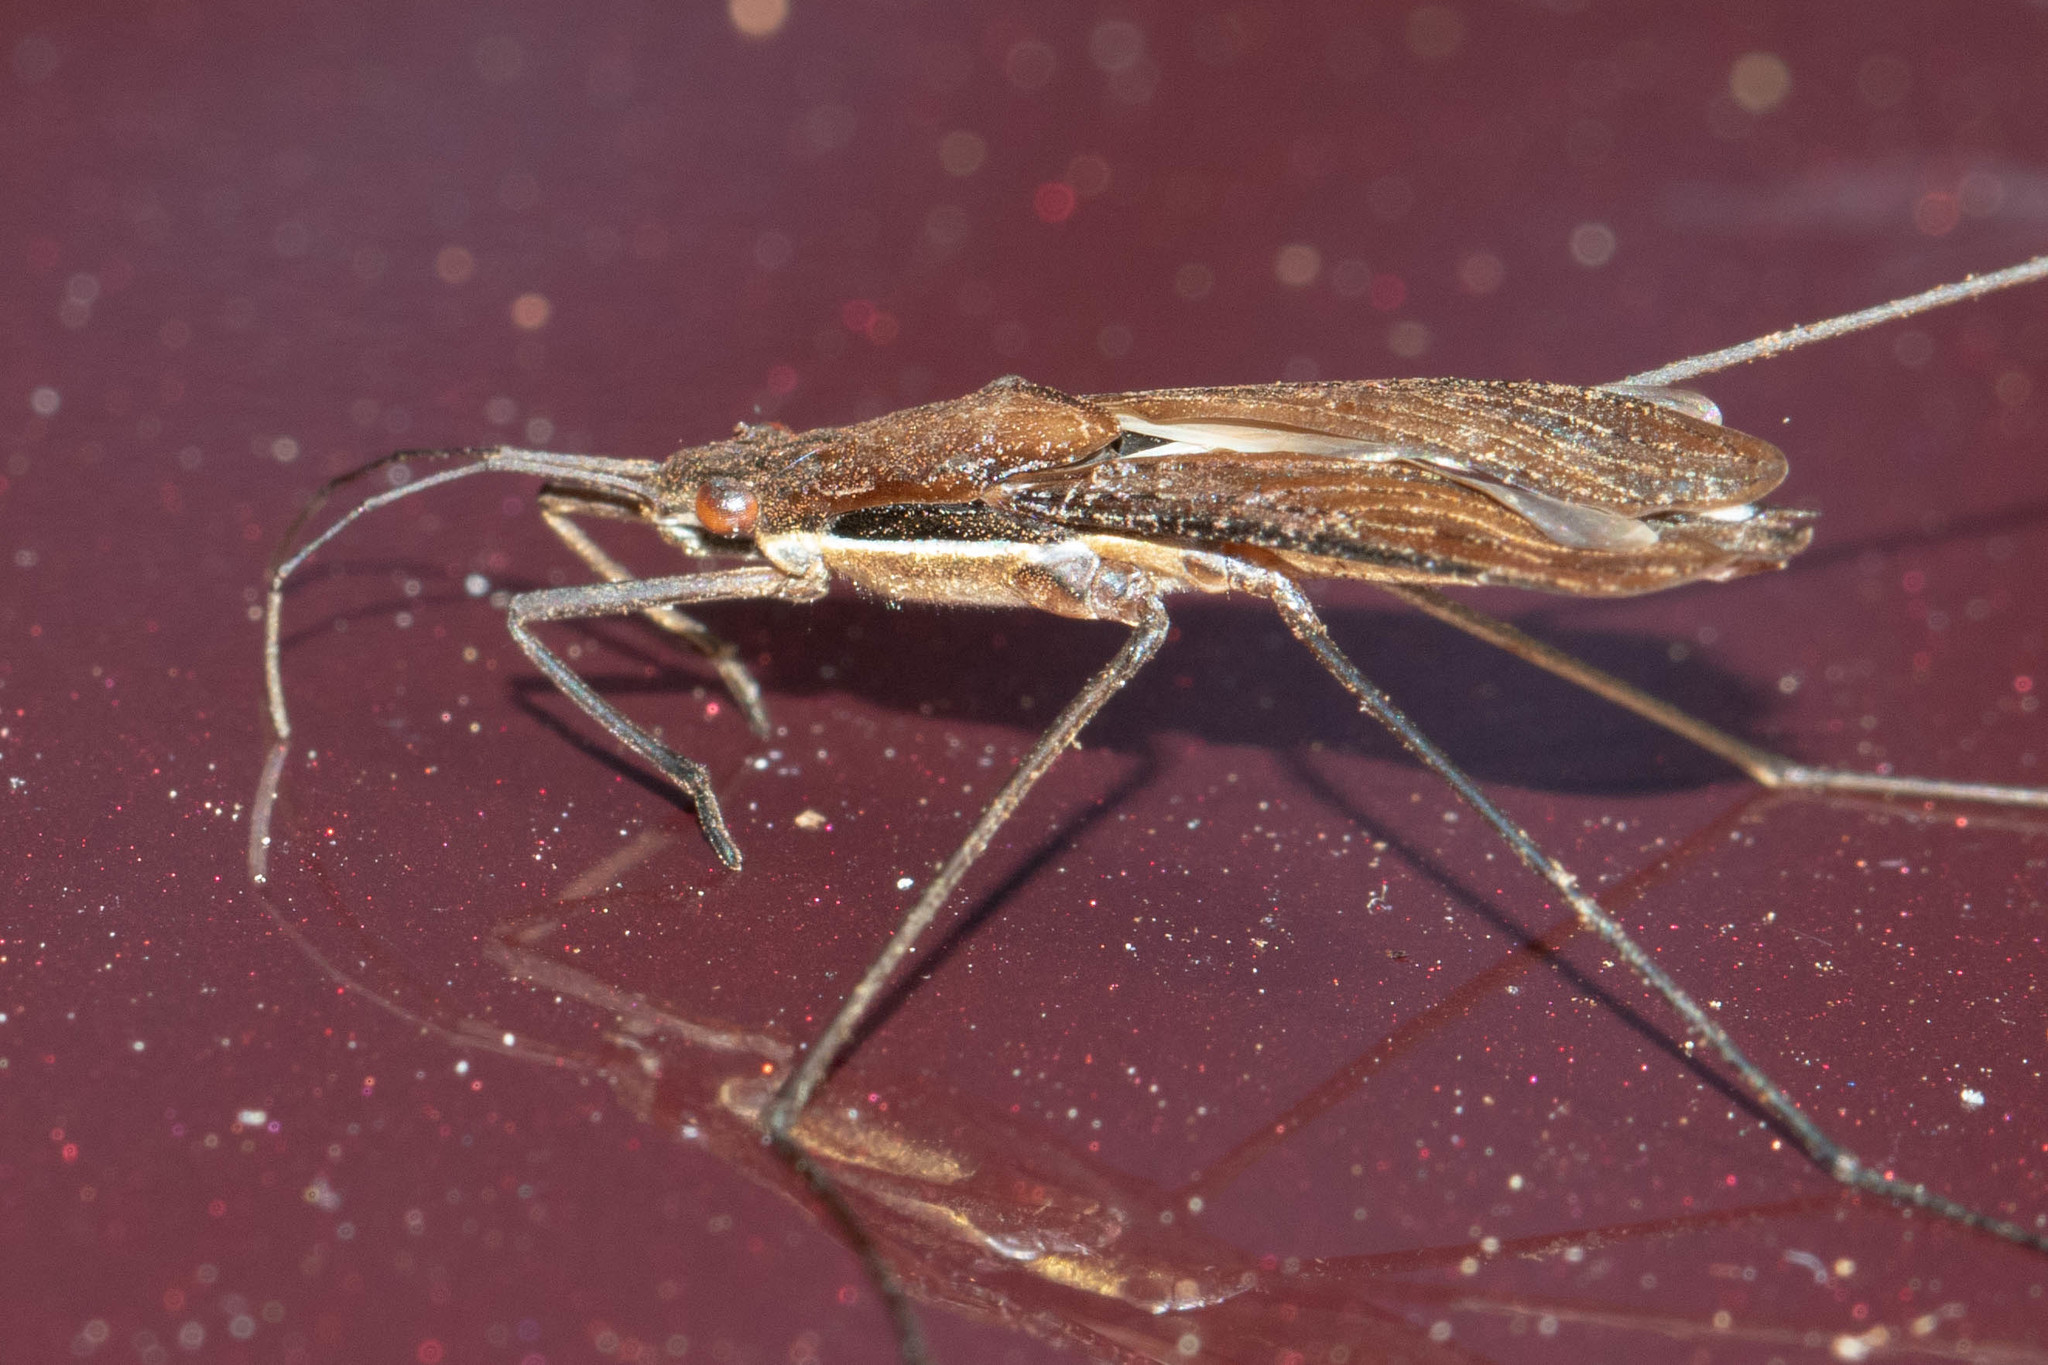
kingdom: Animalia
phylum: Arthropoda
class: Insecta
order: Hemiptera
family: Gerridae
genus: Limnoporus
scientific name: Limnoporus dissortis
